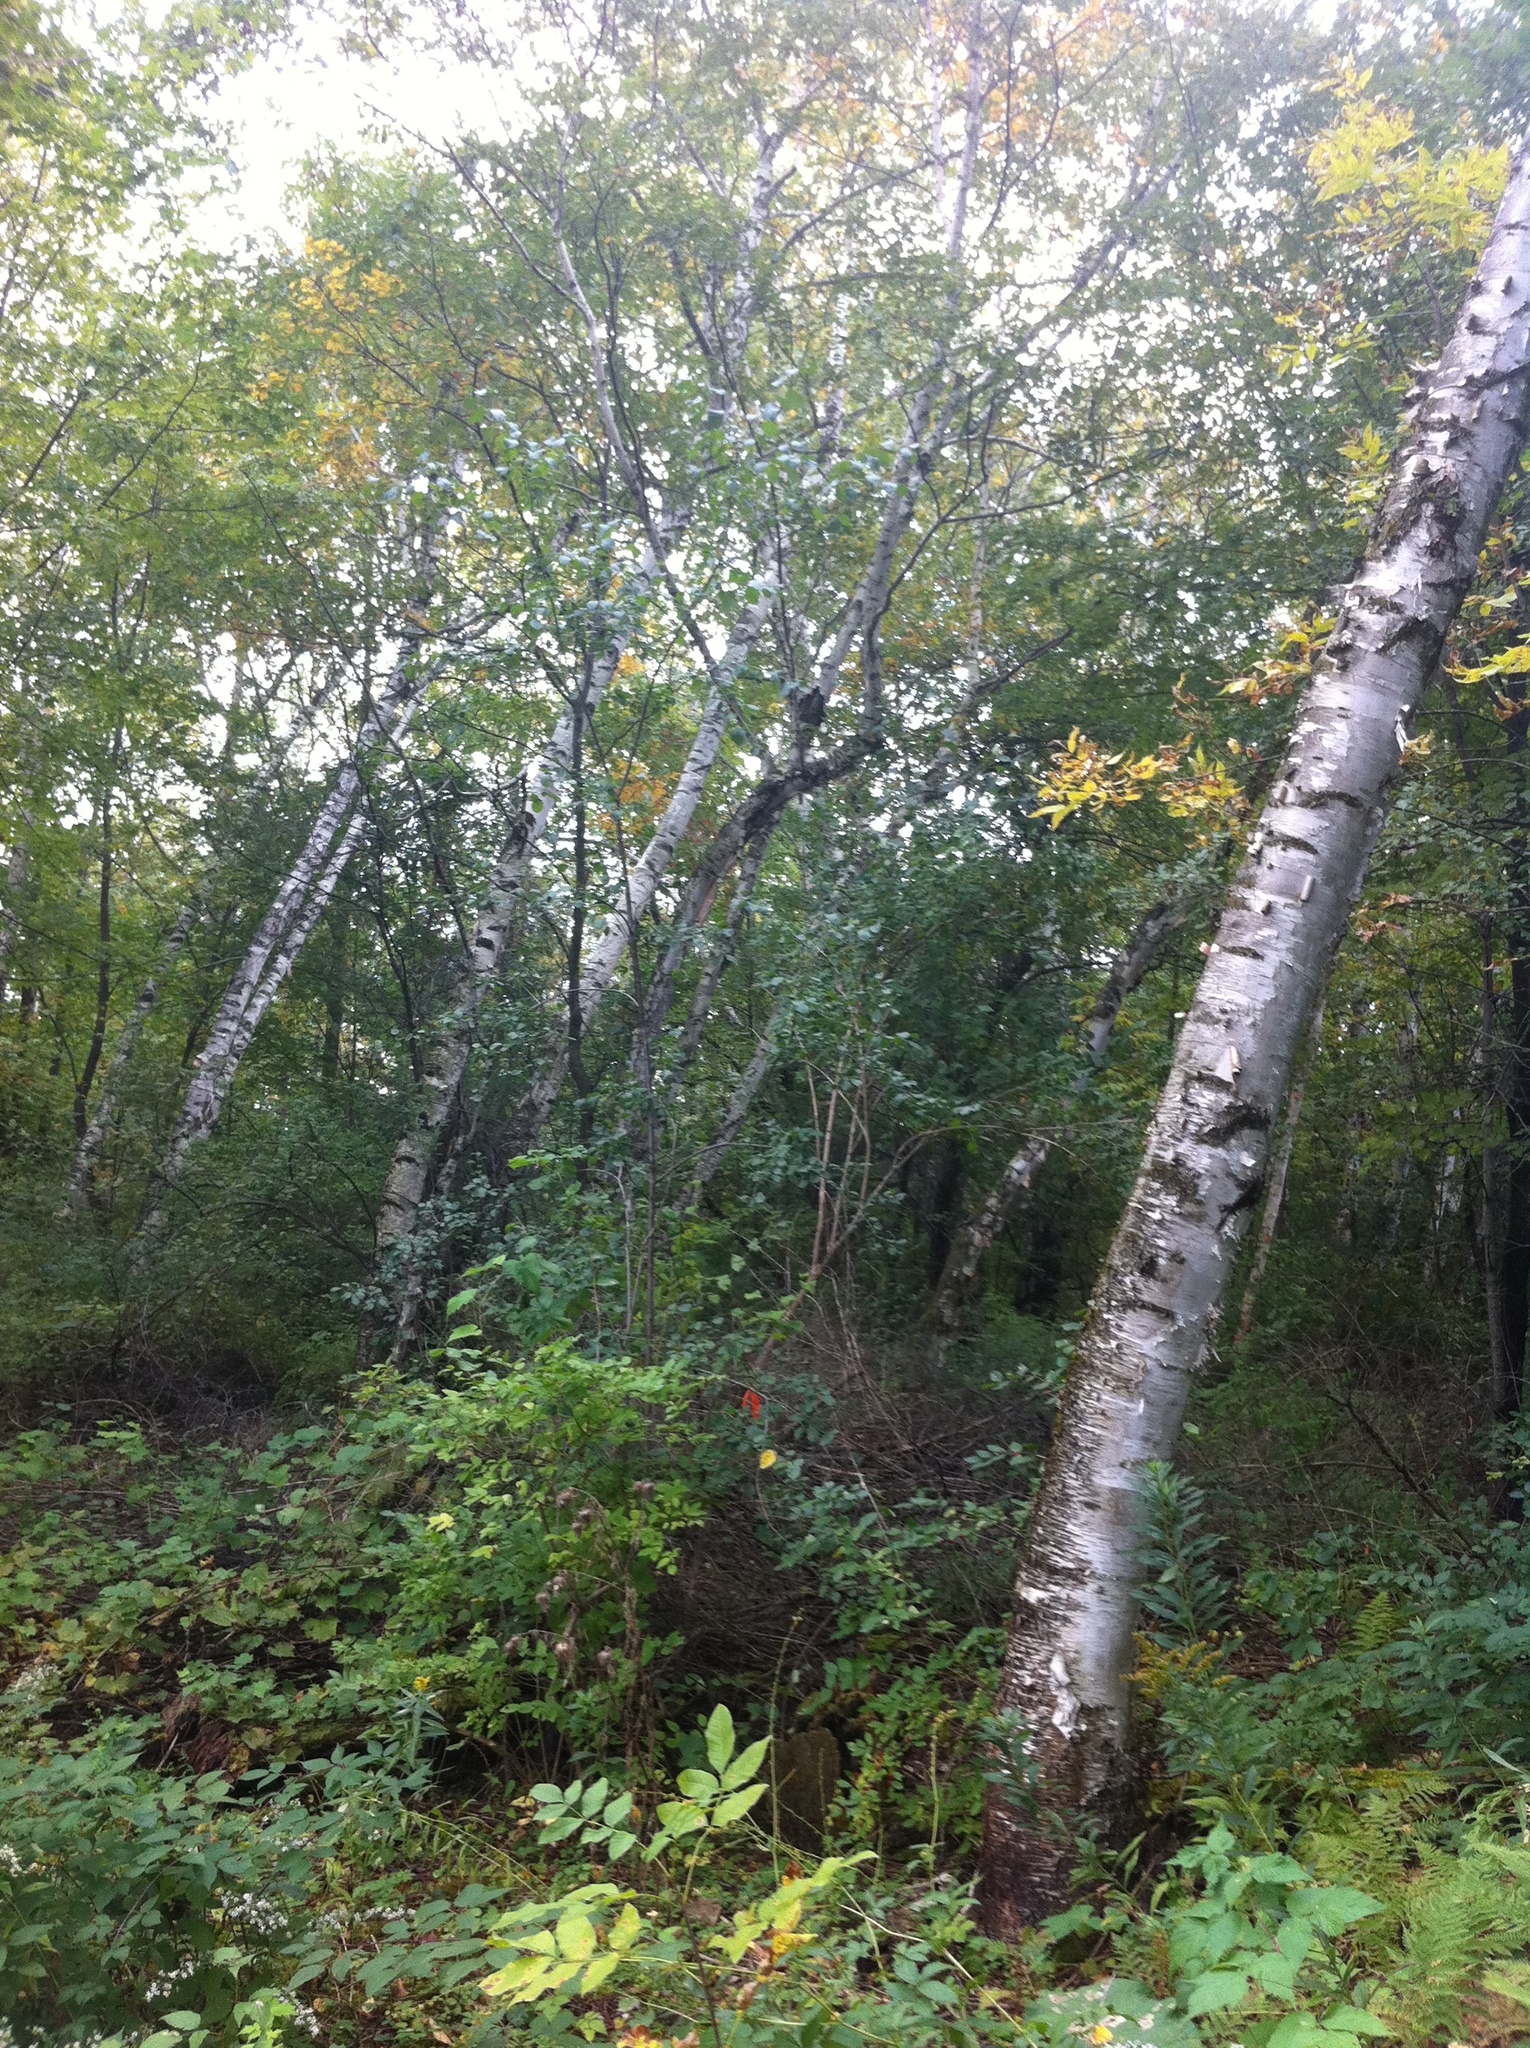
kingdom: Plantae
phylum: Tracheophyta
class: Magnoliopsida
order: Fagales
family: Betulaceae
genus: Betula
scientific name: Betula papyrifera
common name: Paper birch
